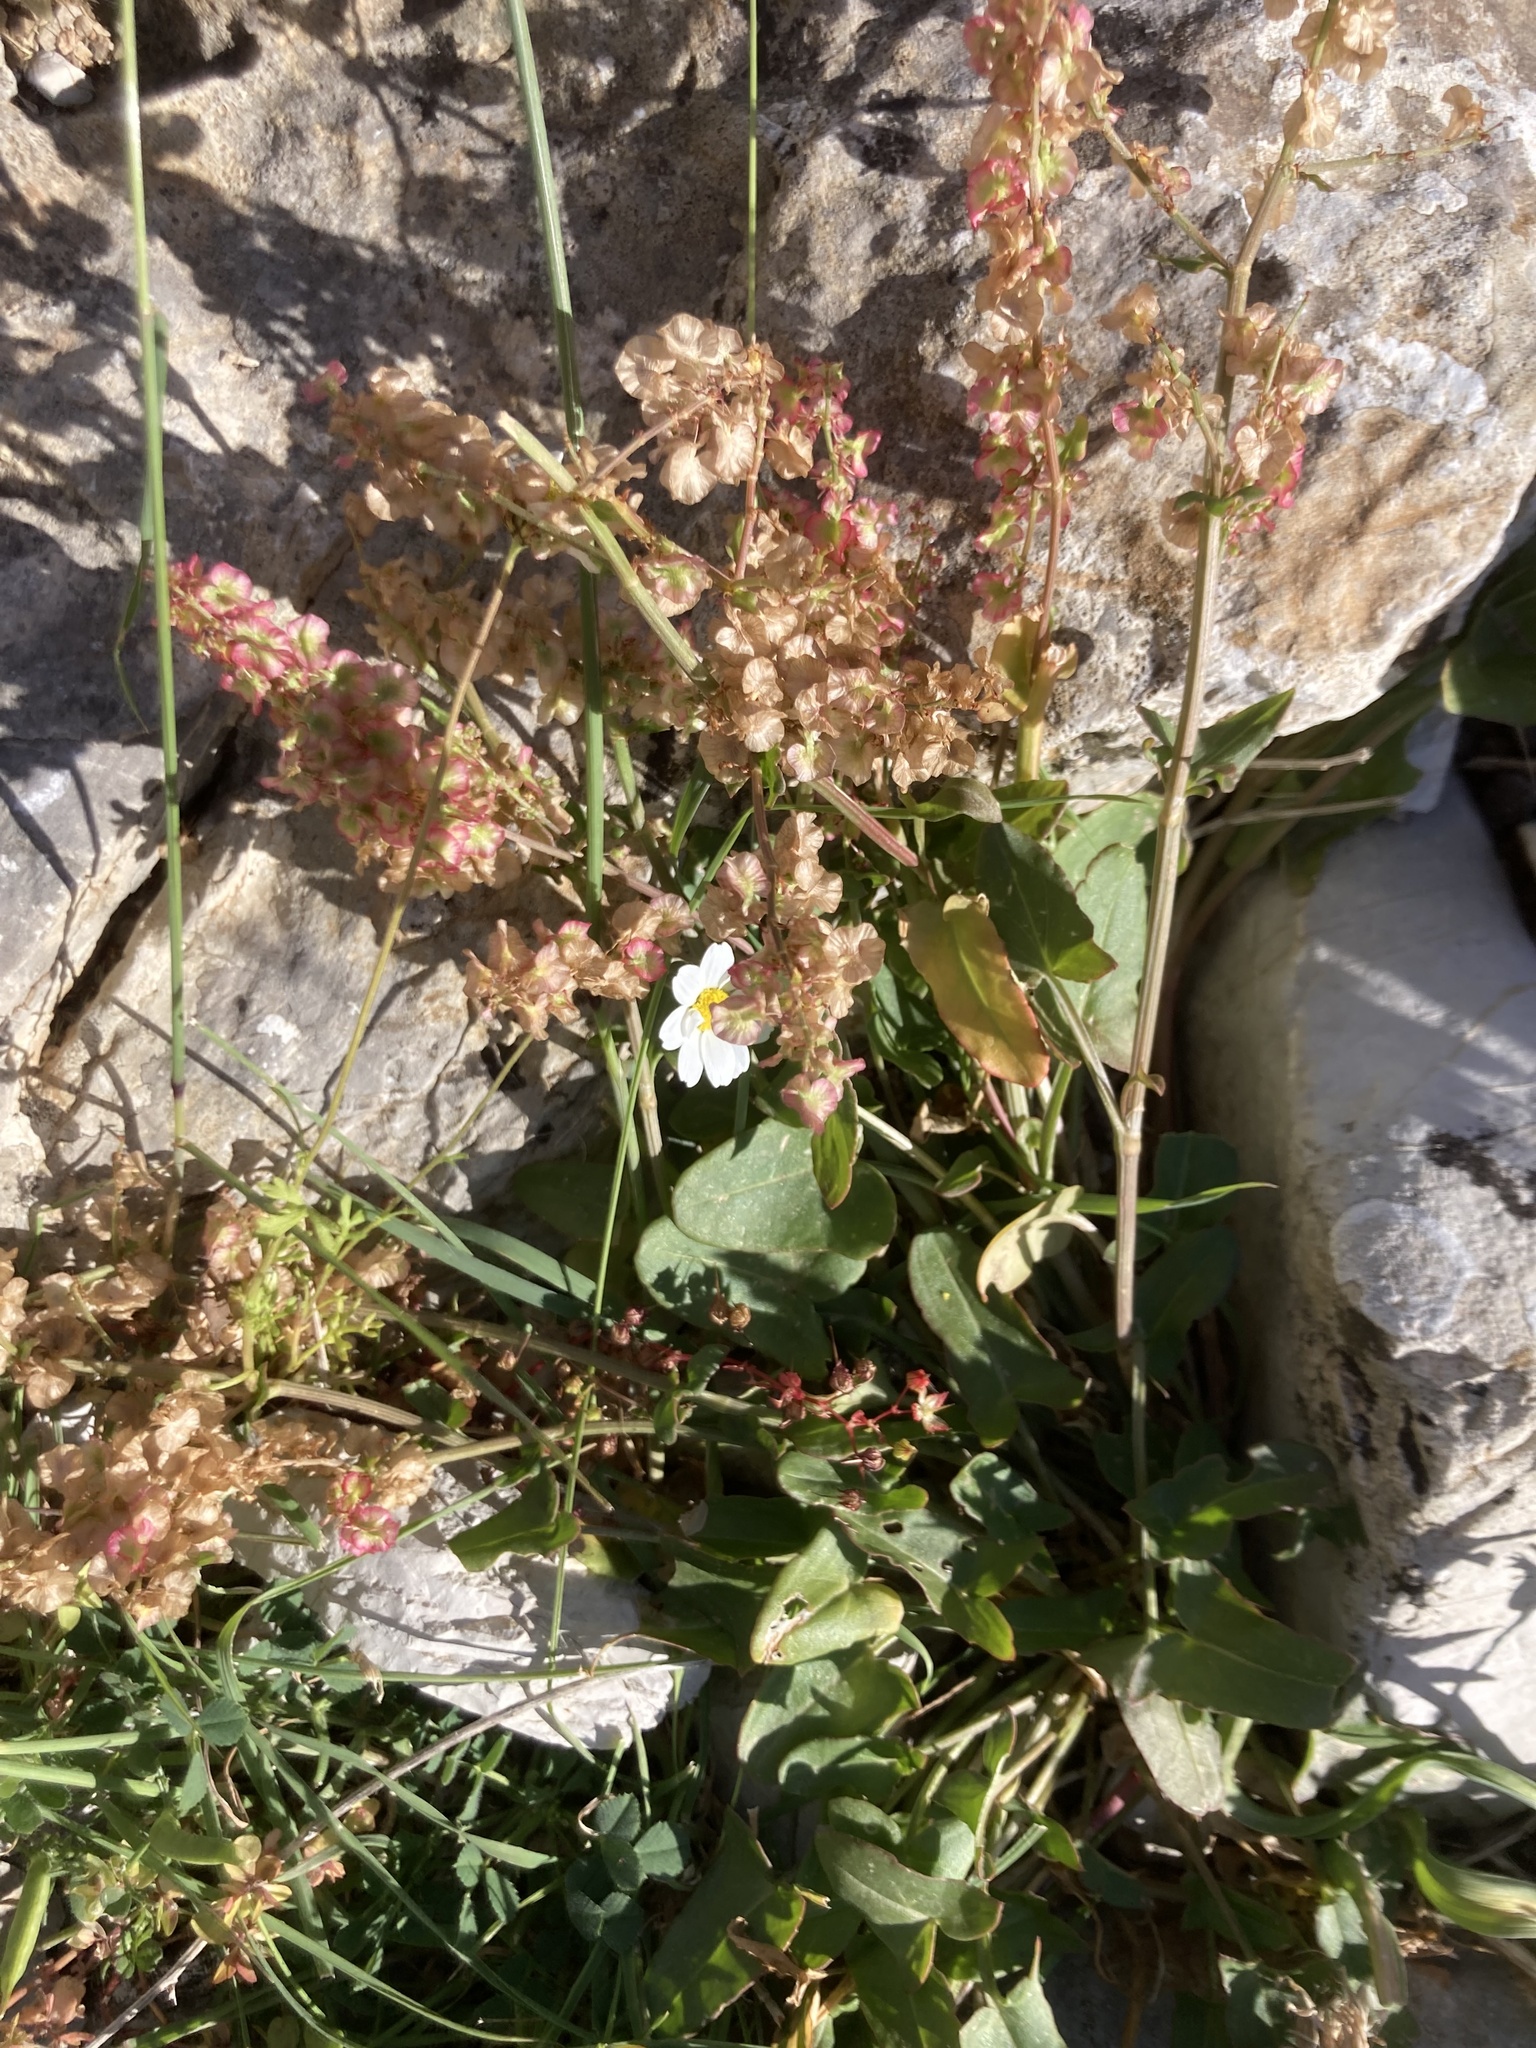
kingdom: Plantae
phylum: Tracheophyta
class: Magnoliopsida
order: Caryophyllales
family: Polygonaceae
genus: Rumex
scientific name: Rumex tuberosus
